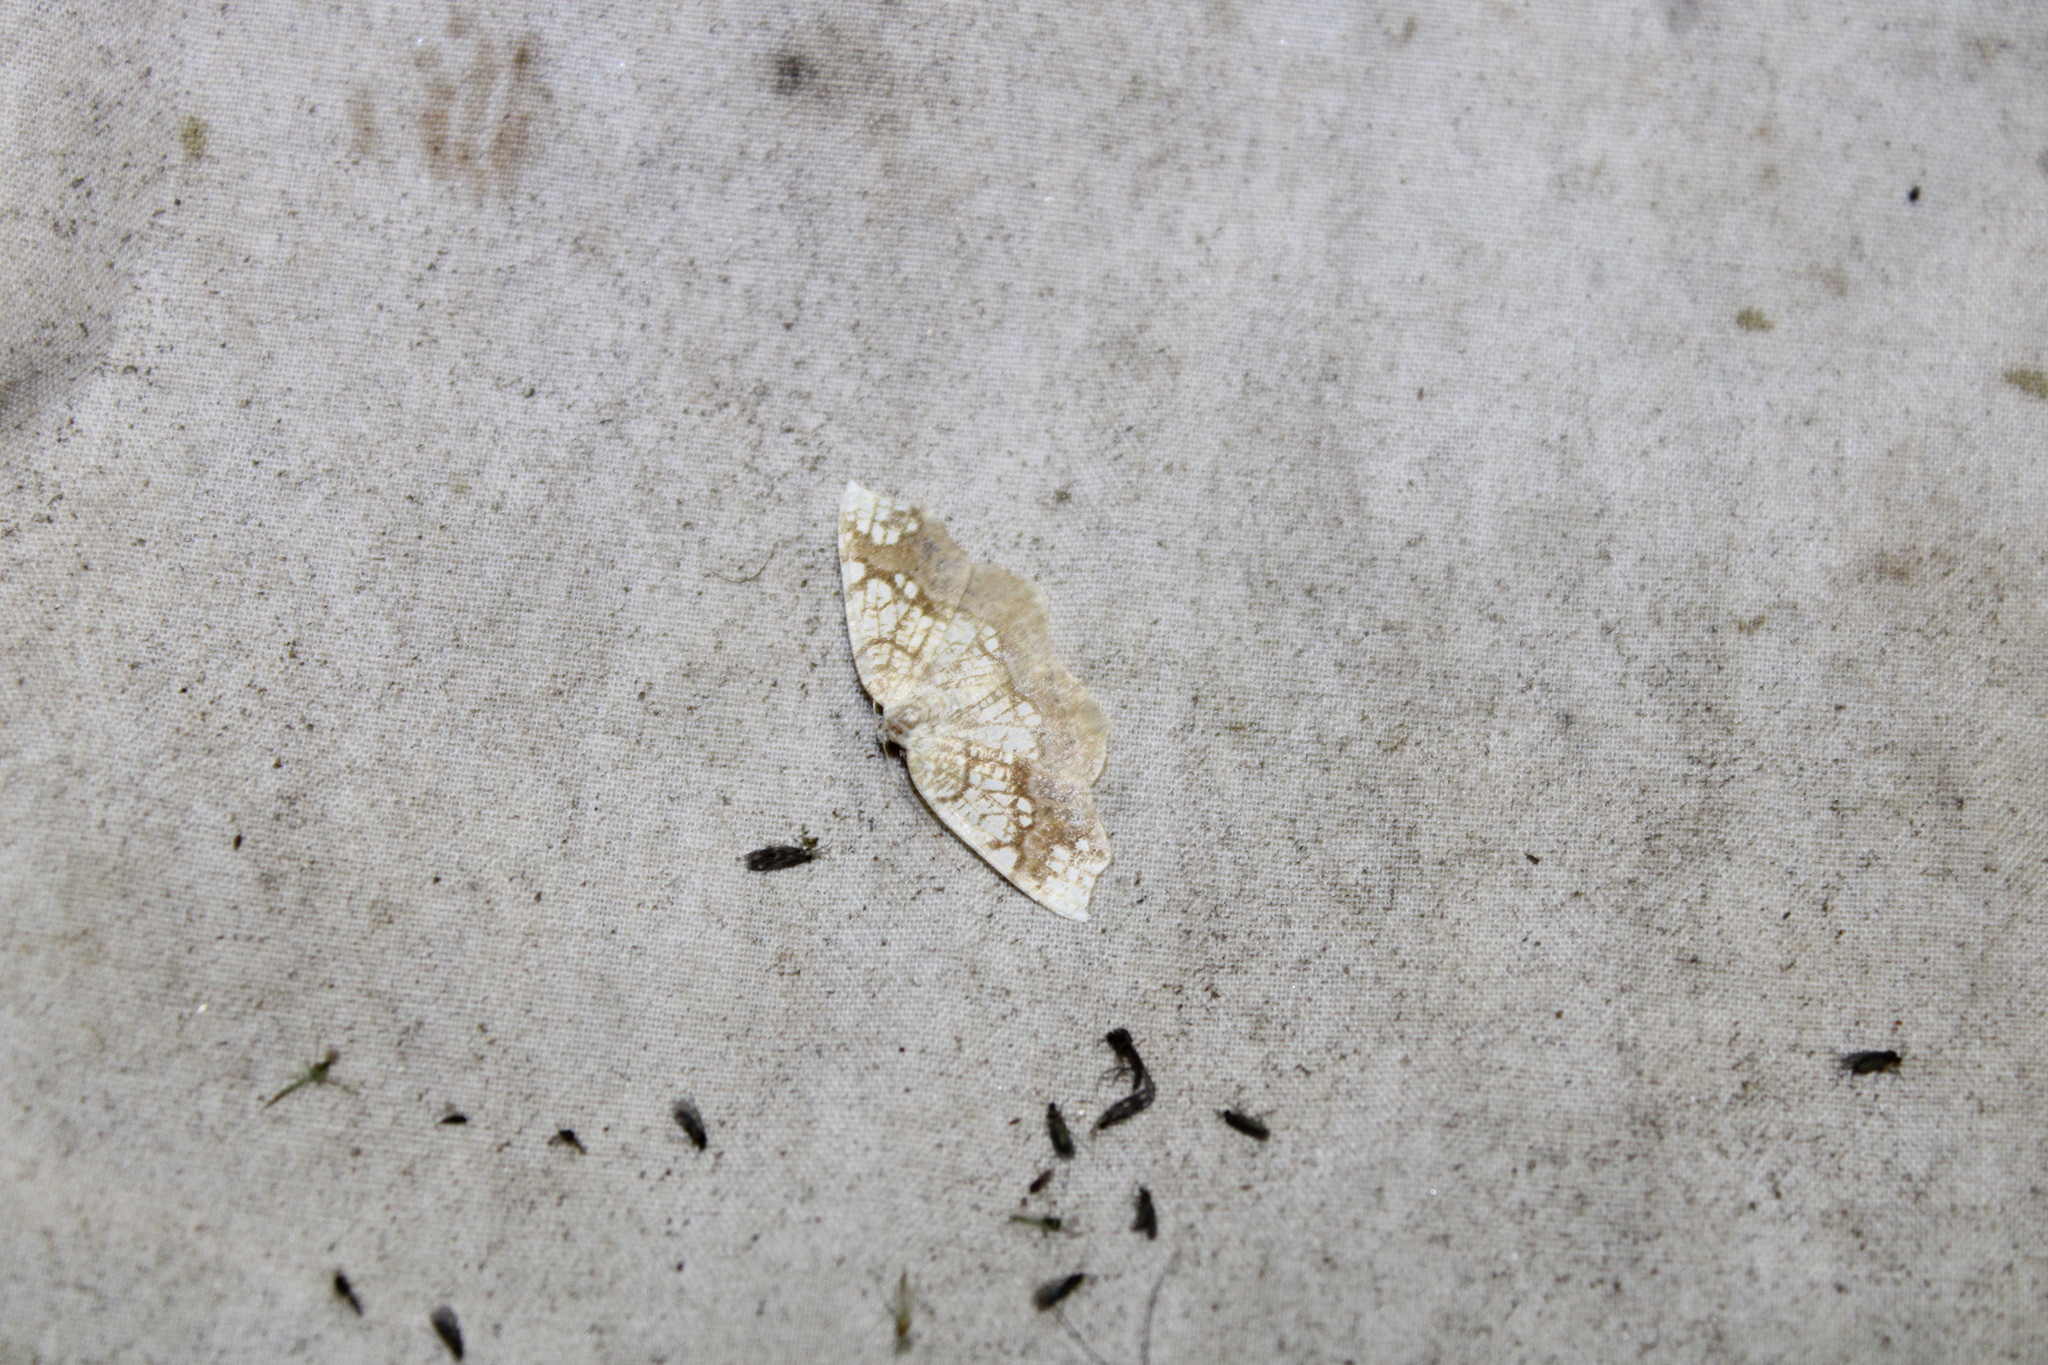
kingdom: Animalia
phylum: Arthropoda
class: Insecta
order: Lepidoptera
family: Geometridae
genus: Nematocampa
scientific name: Nematocampa resistaria
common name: Horned spanworm moth
